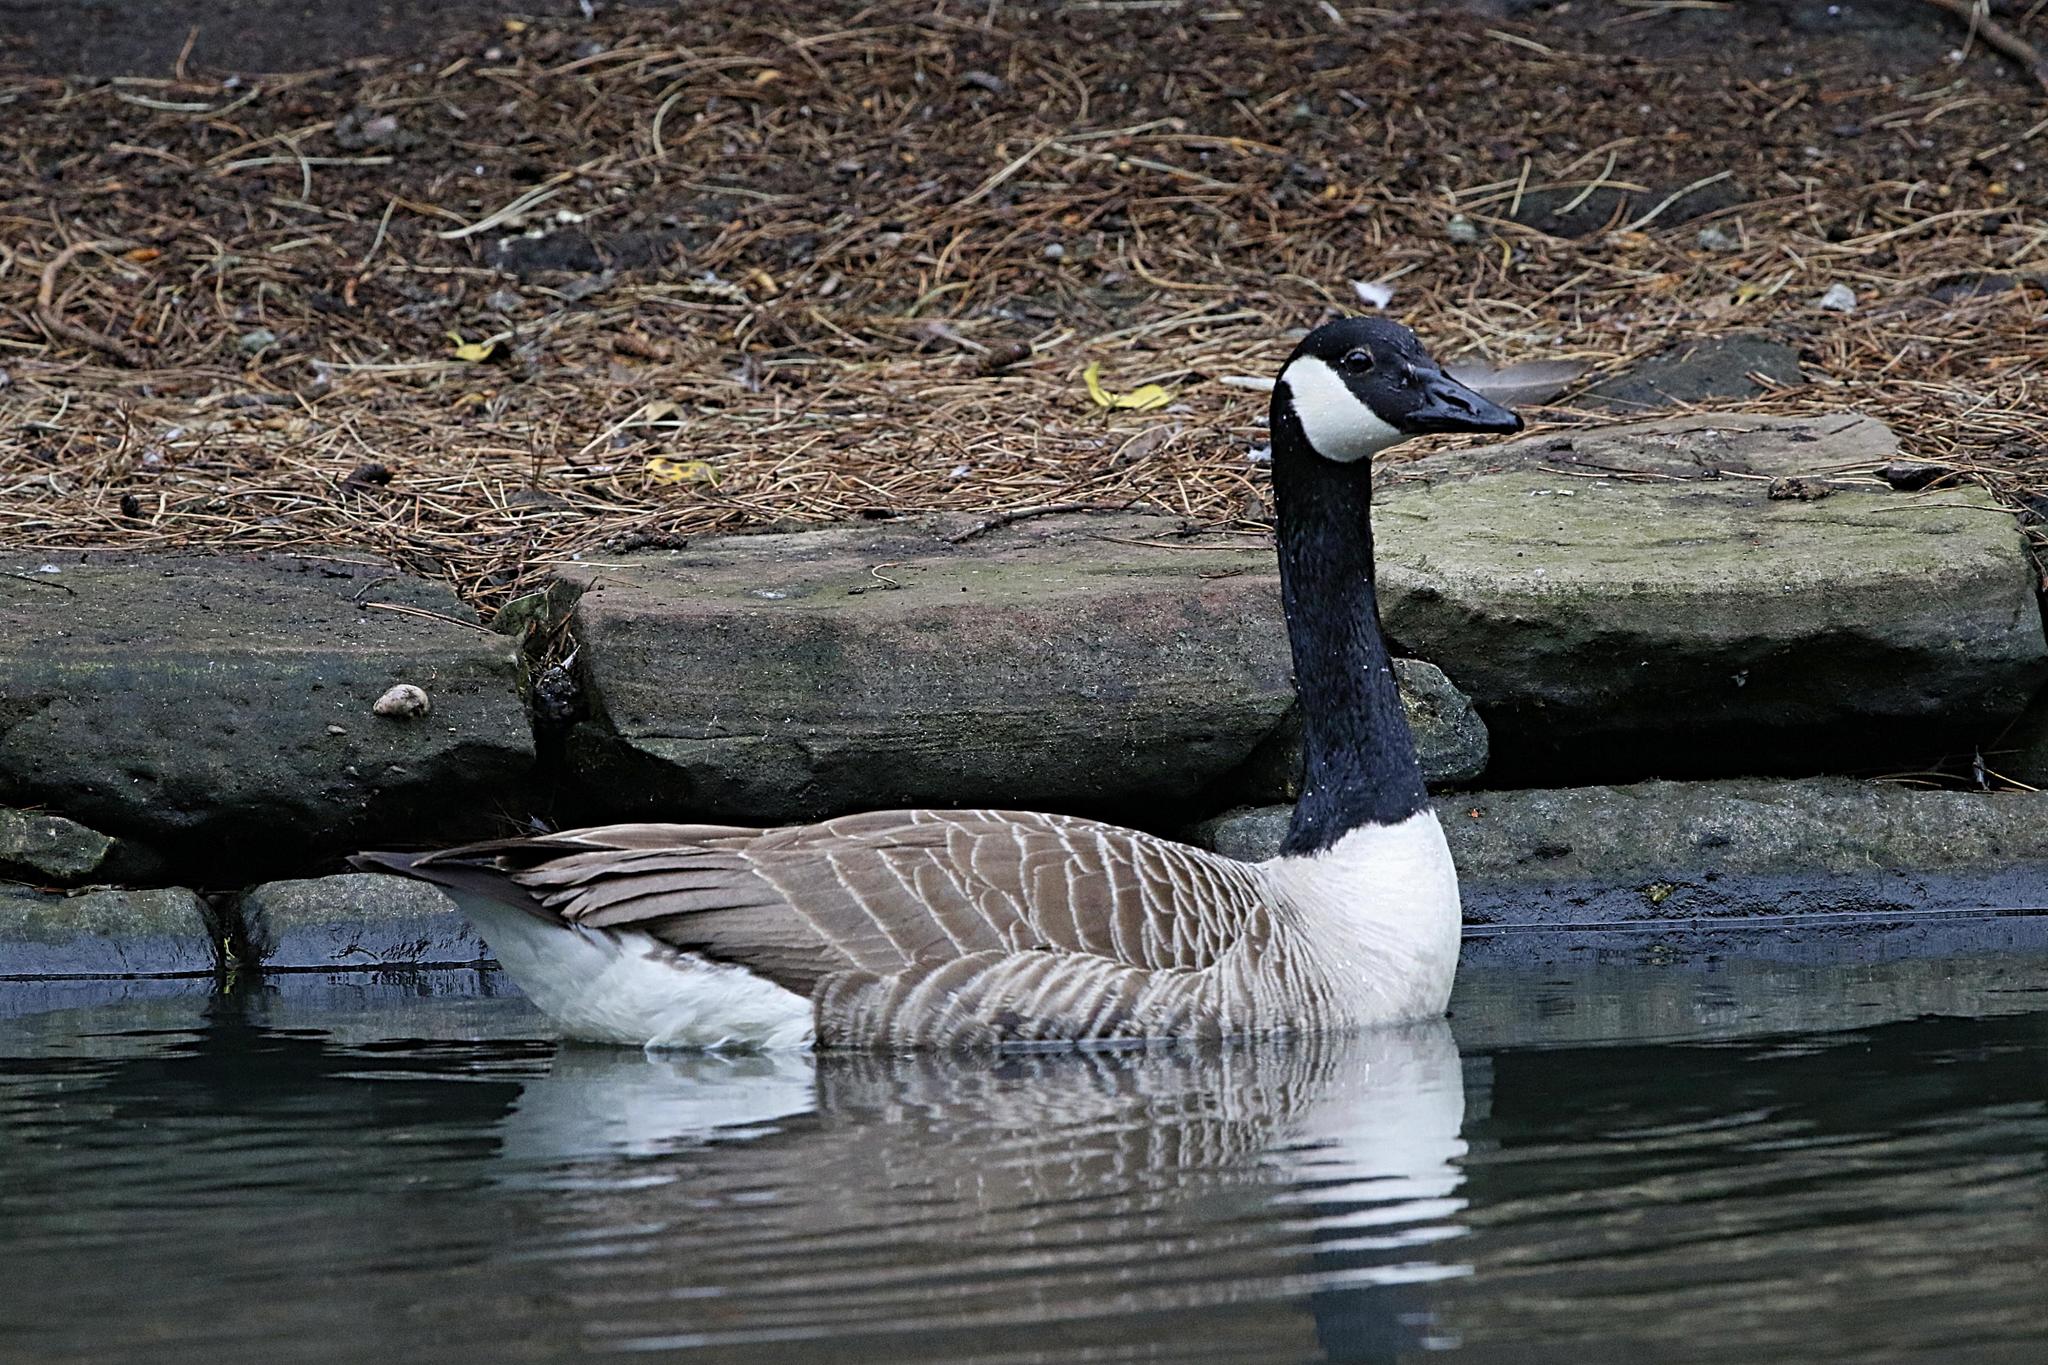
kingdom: Animalia
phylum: Chordata
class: Aves
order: Anseriformes
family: Anatidae
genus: Branta
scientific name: Branta canadensis
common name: Canada goose
